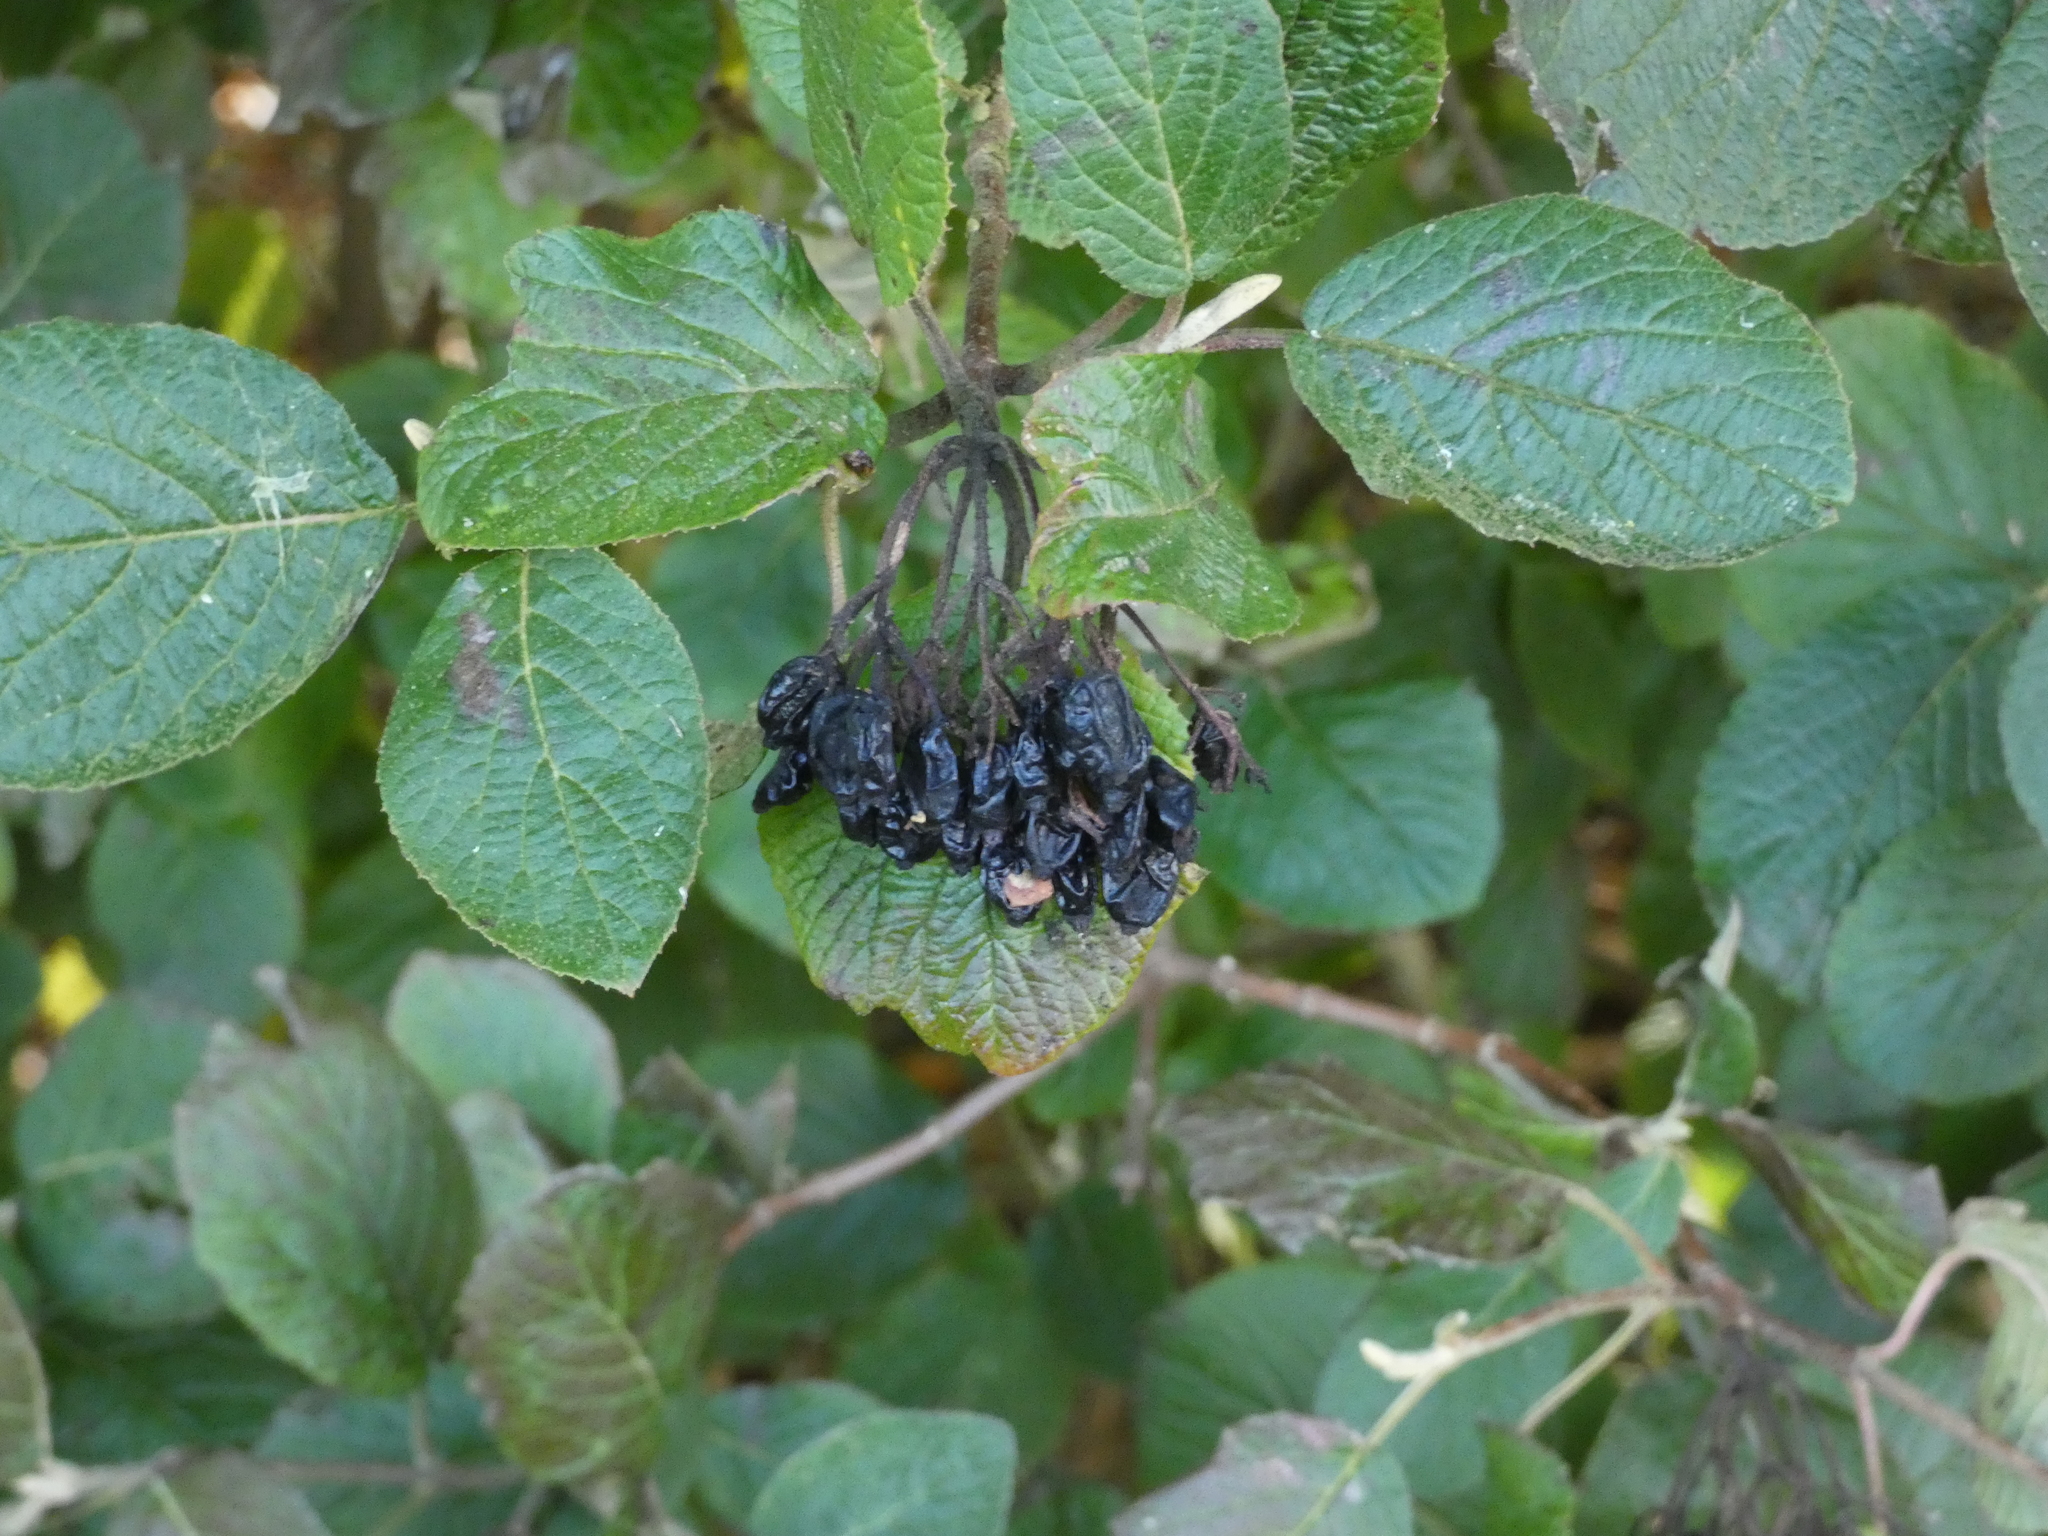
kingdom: Plantae
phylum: Tracheophyta
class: Magnoliopsida
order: Dipsacales
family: Viburnaceae
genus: Viburnum
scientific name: Viburnum lantana
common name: Wayfaring tree
